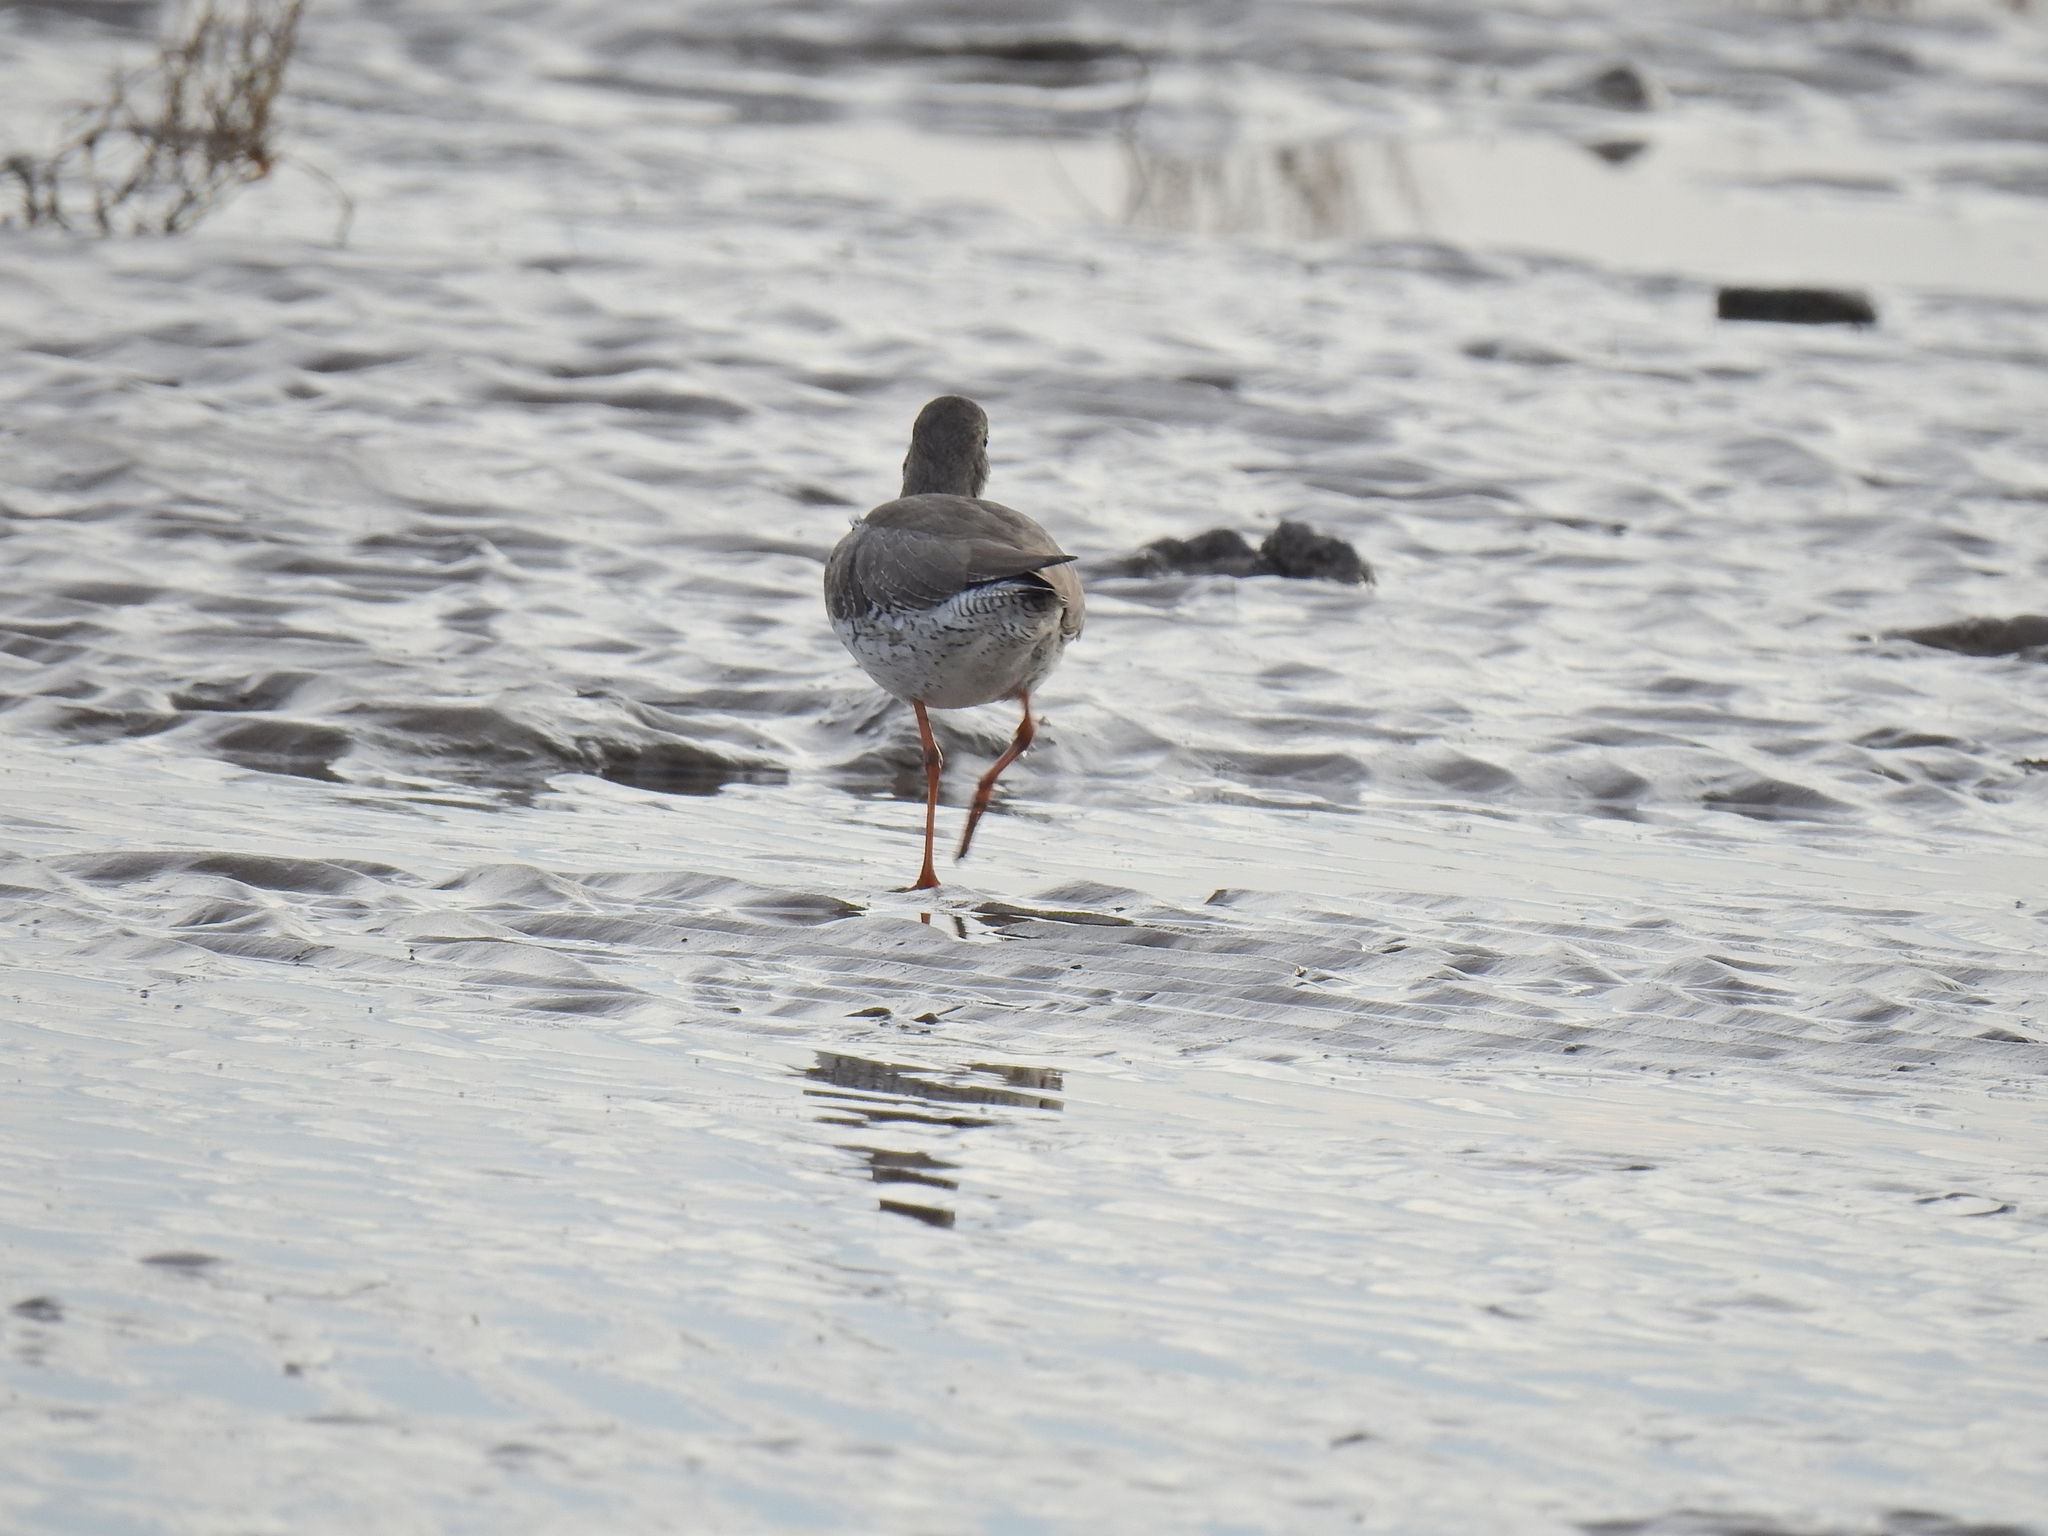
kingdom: Animalia
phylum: Chordata
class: Aves
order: Charadriiformes
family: Scolopacidae
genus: Tringa
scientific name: Tringa totanus
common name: Common redshank
